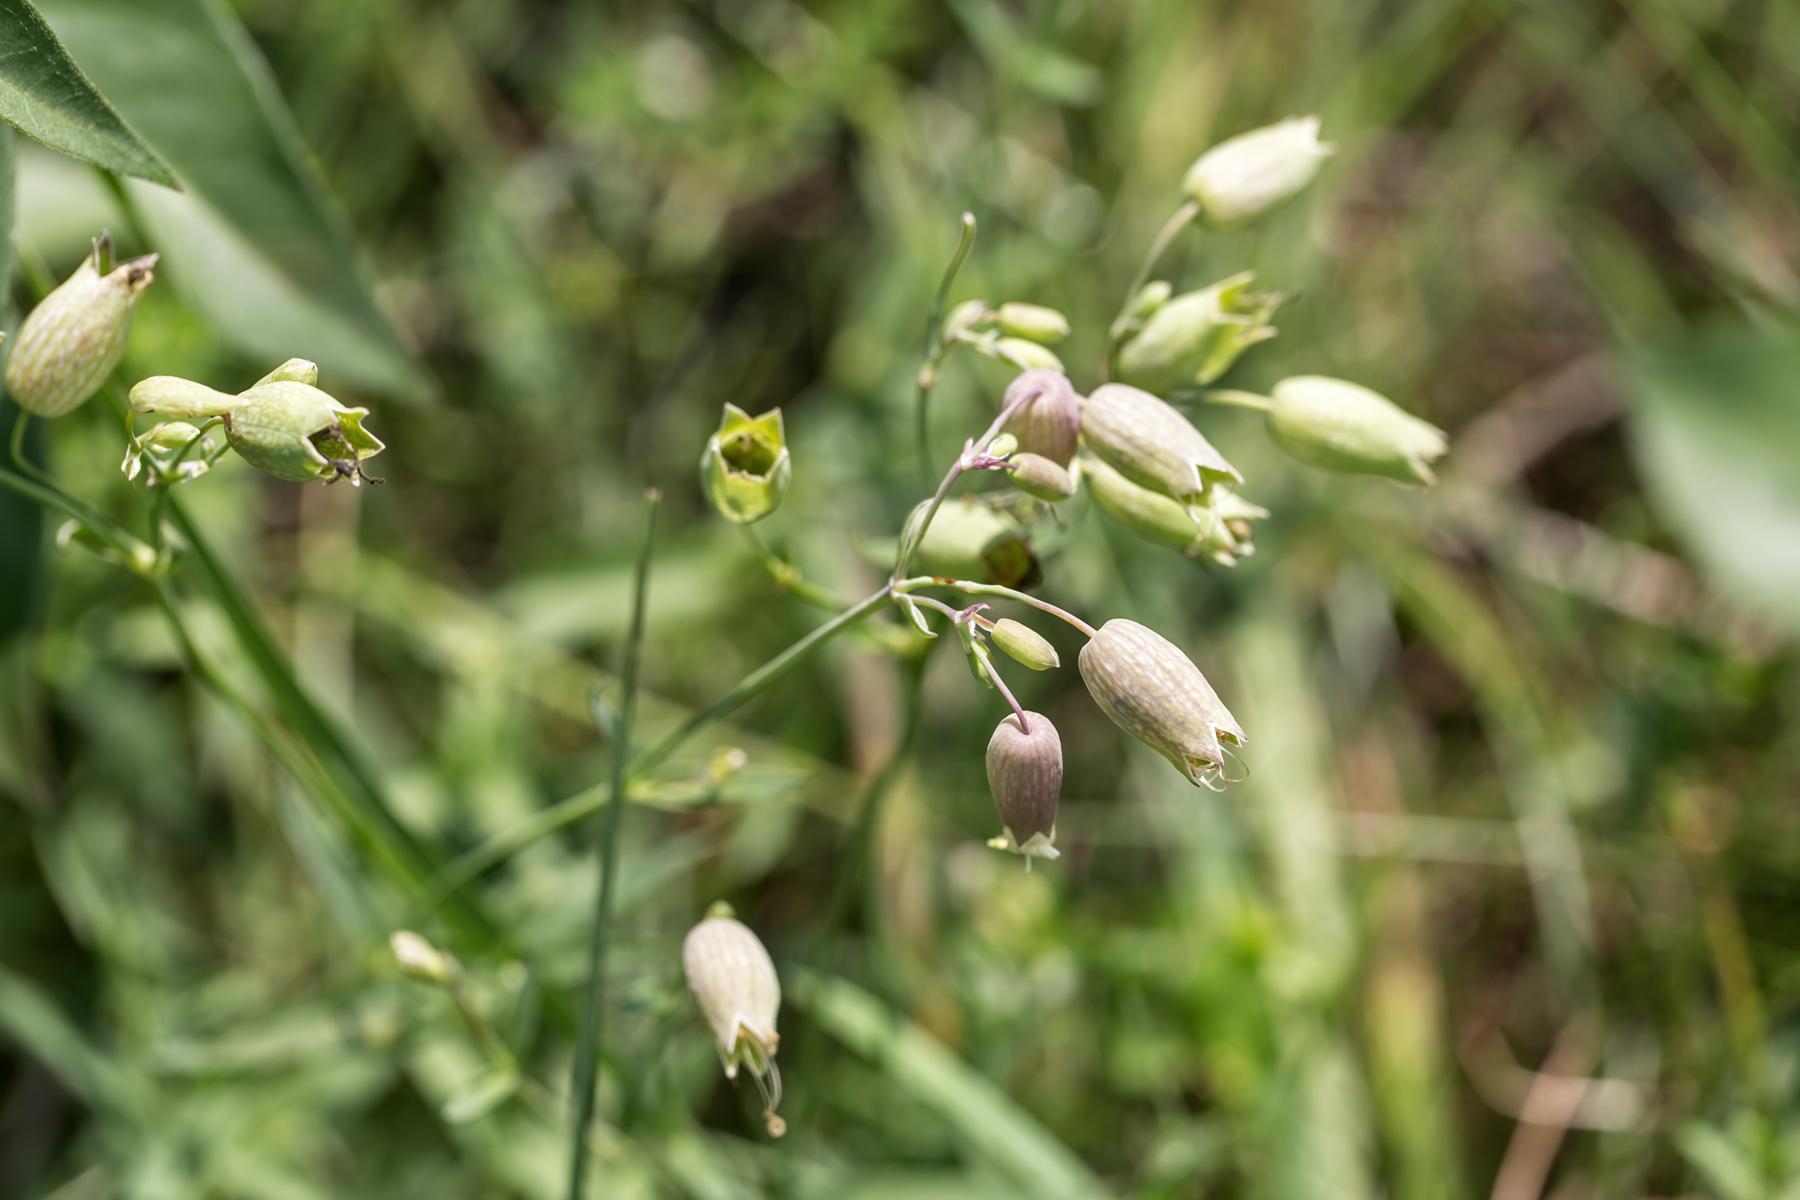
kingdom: Plantae
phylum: Tracheophyta
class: Magnoliopsida
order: Caryophyllales
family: Caryophyllaceae
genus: Silene
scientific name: Silene vulgaris
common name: Bladder campion
